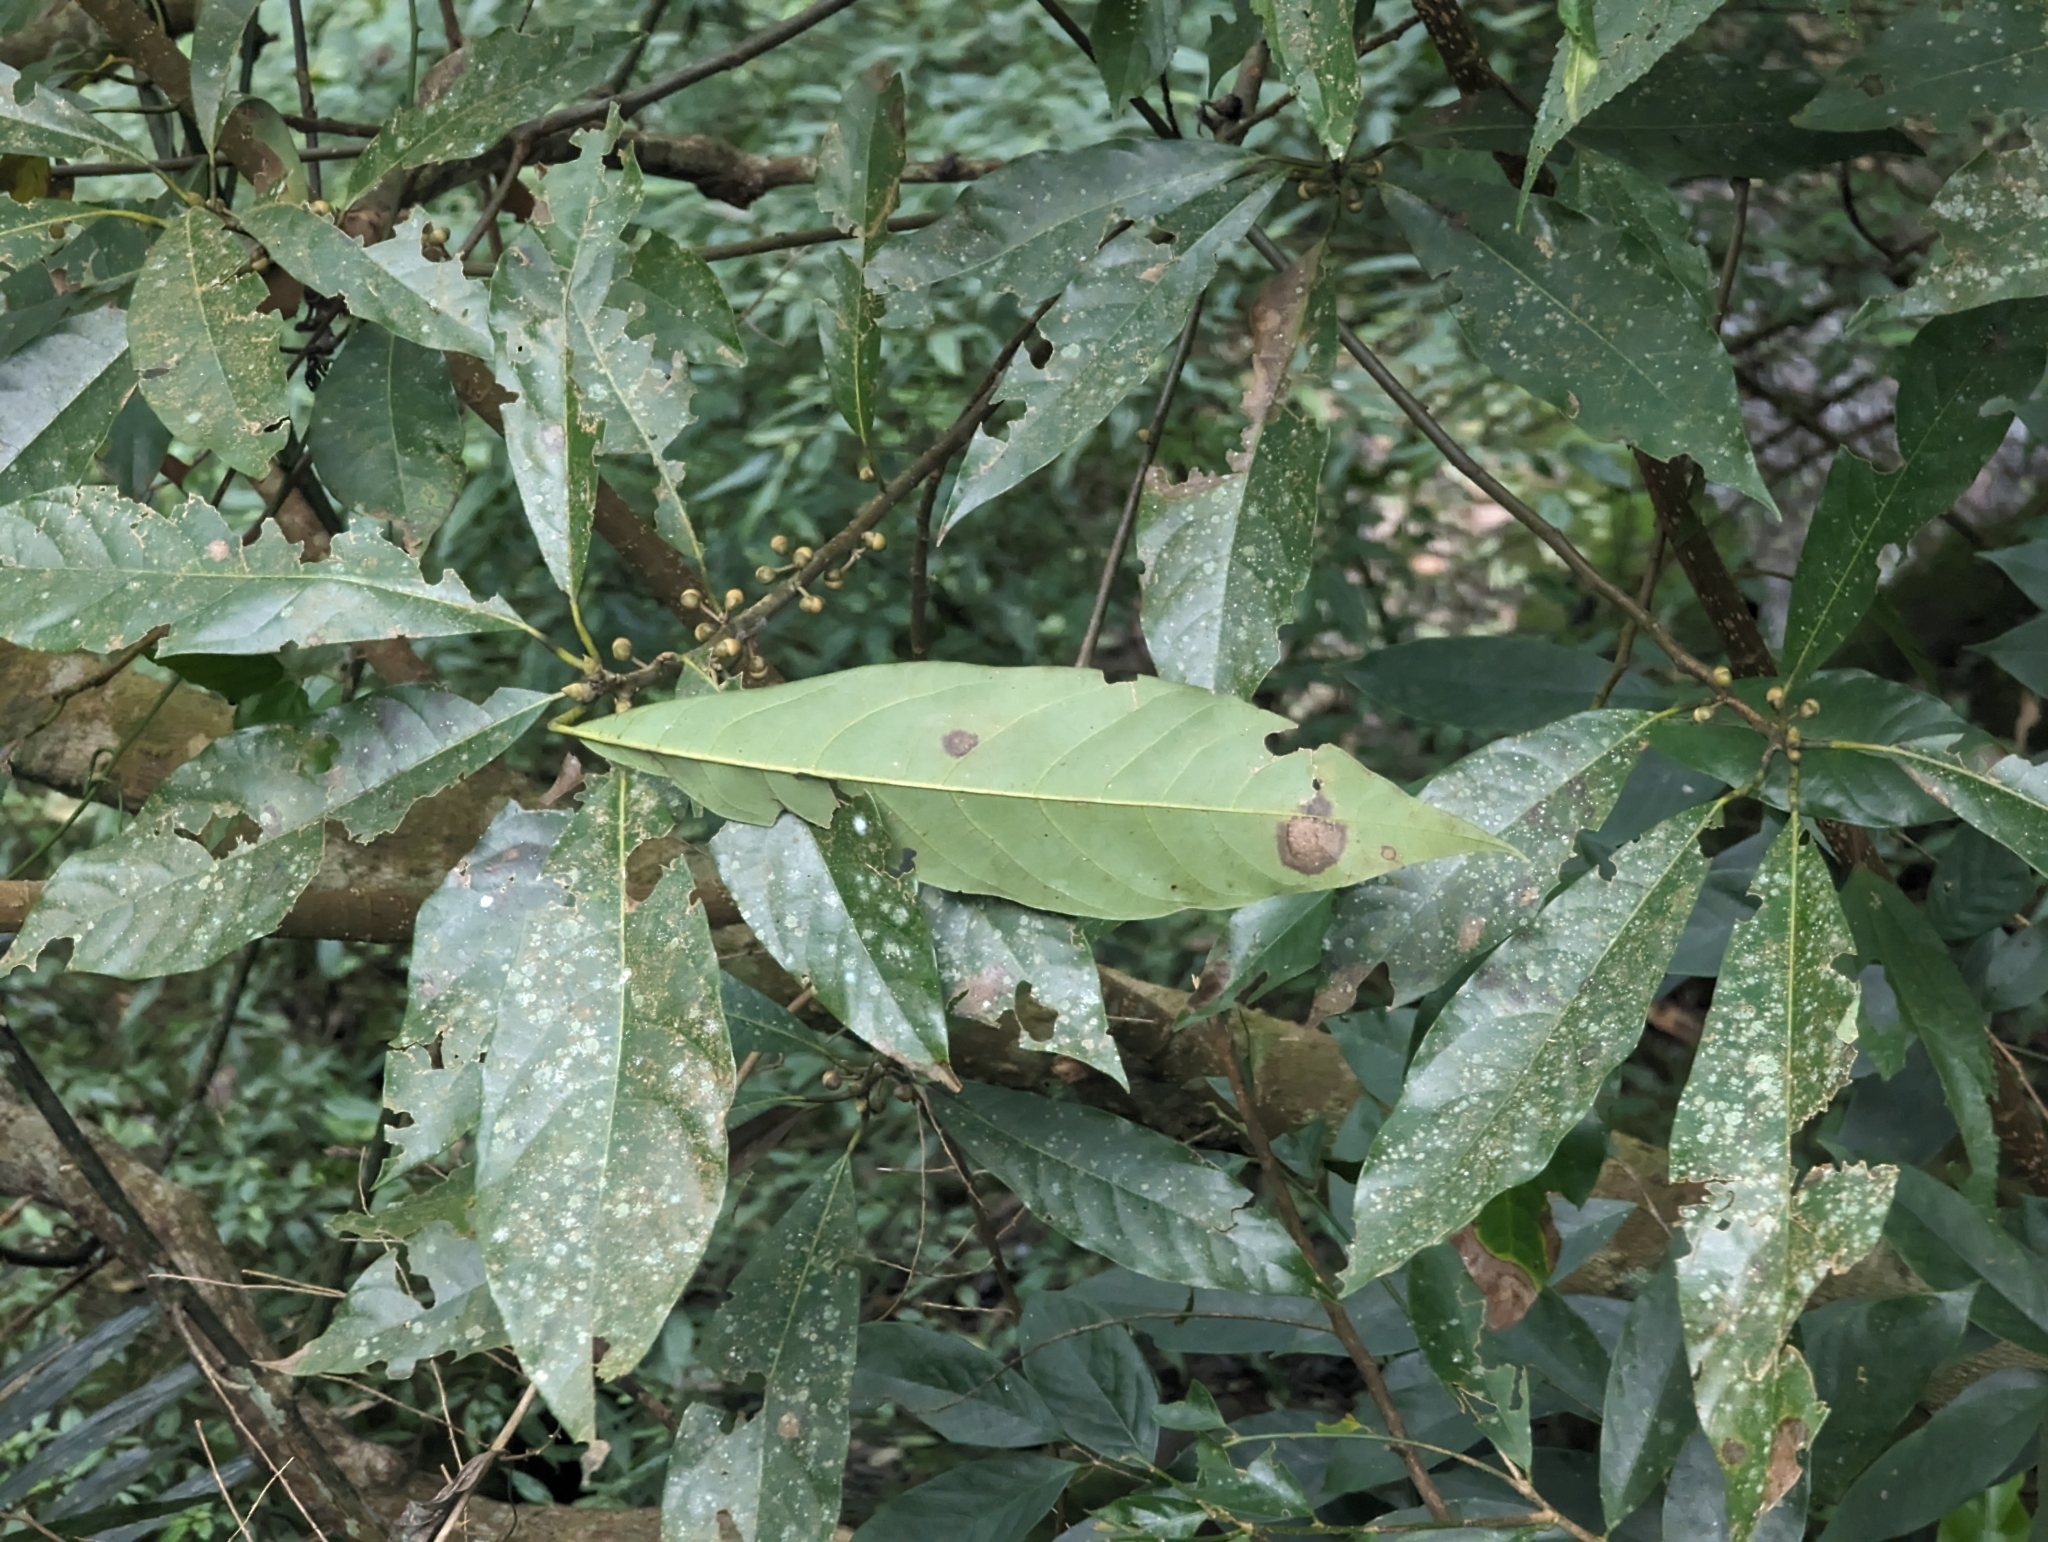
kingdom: Plantae
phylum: Tracheophyta
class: Magnoliopsida
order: Laurales
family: Lauraceae
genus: Lindera
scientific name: Lindera megaphylla
